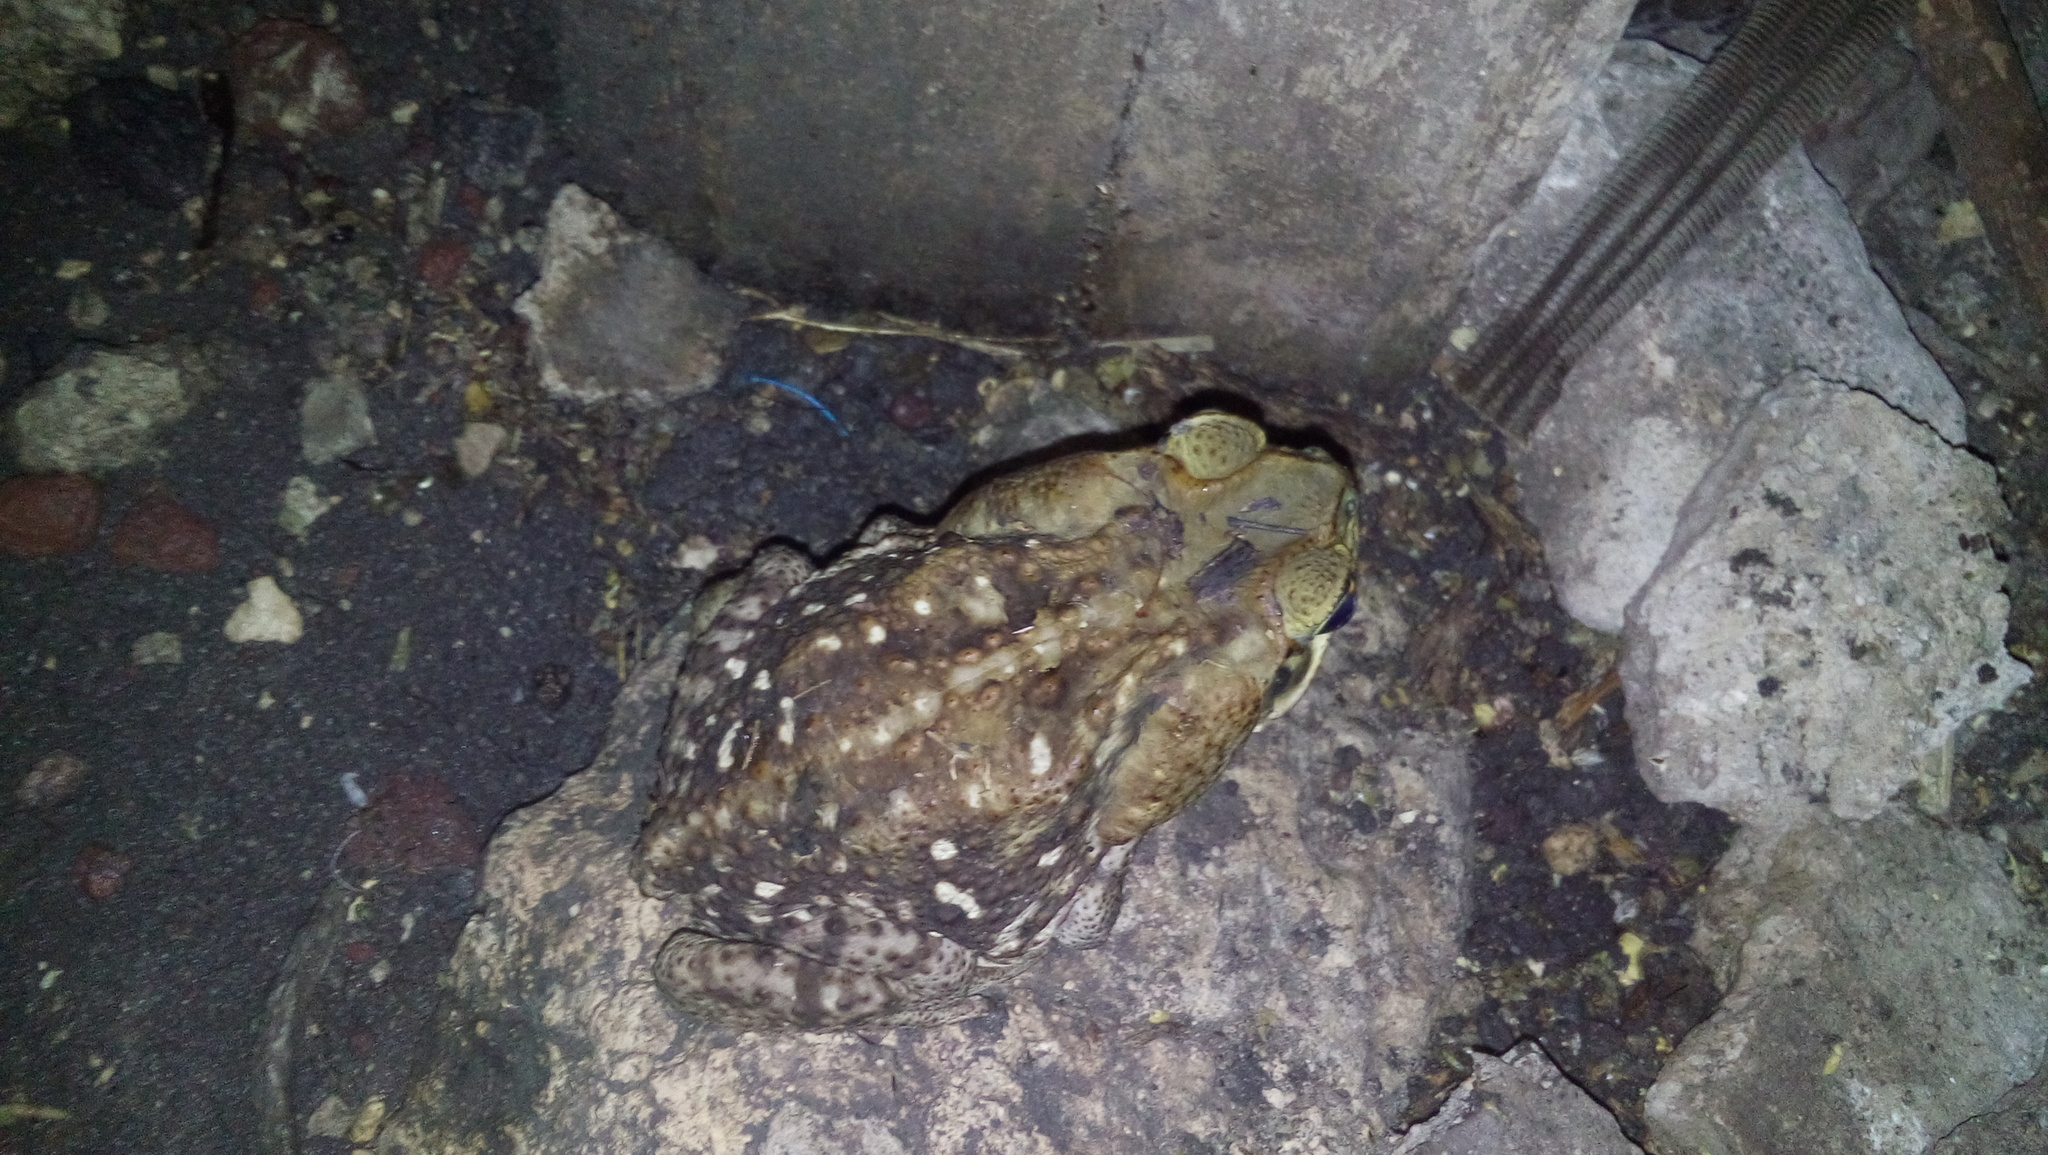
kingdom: Animalia
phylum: Chordata
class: Amphibia
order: Anura
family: Bufonidae
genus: Rhinella
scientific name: Rhinella horribilis
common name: Mesoamerican cane toad
